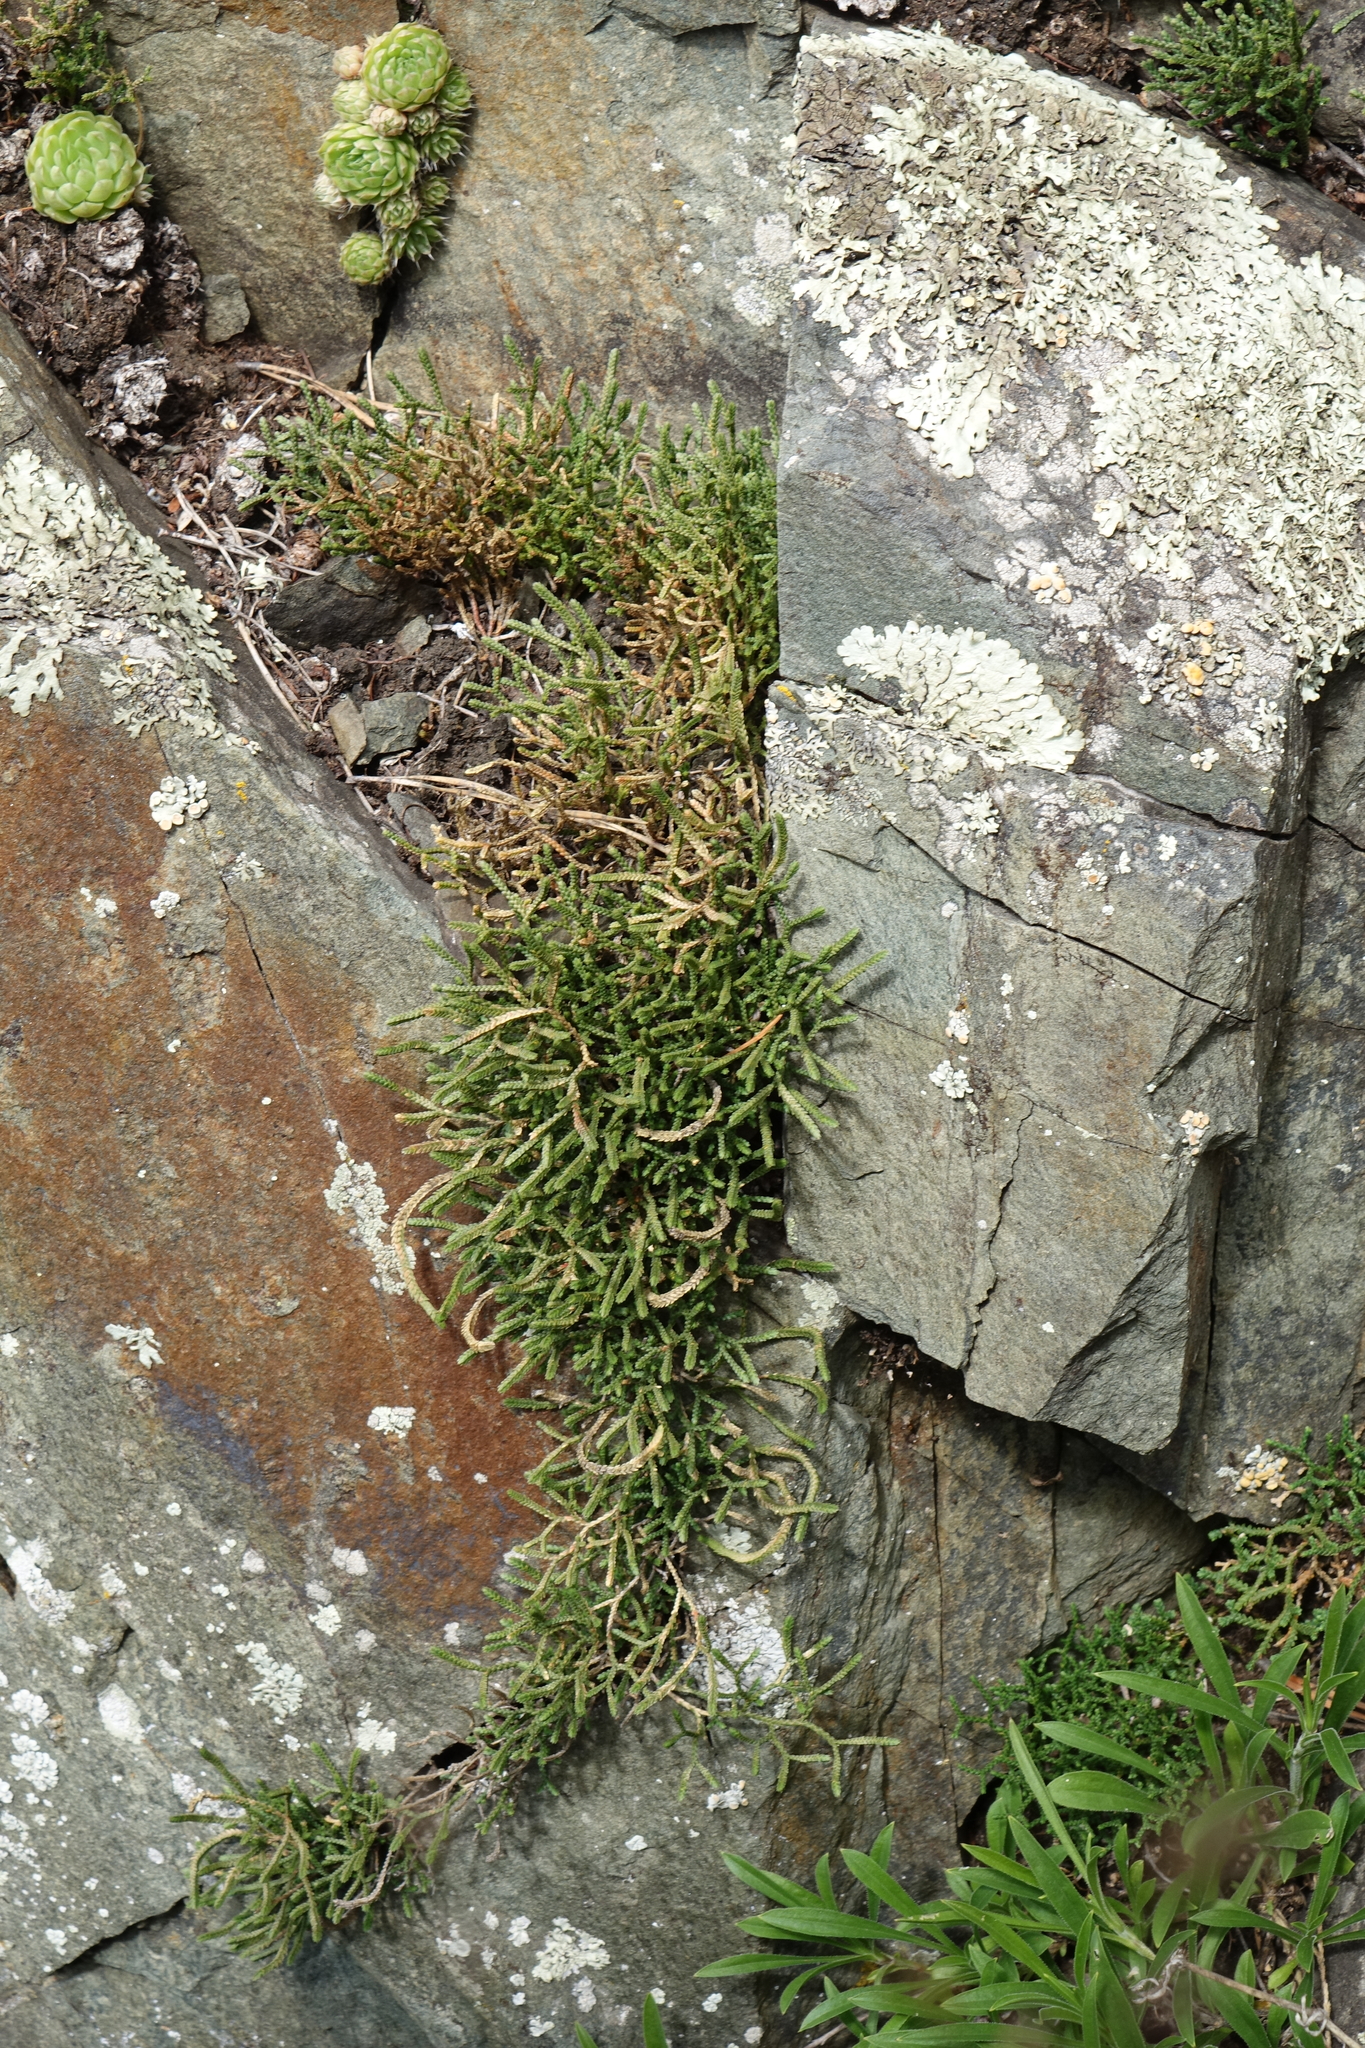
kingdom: Plantae
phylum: Tracheophyta
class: Lycopodiopsida
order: Selaginellales
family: Selaginellaceae
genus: Selaginella
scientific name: Selaginella sanguinolenta
